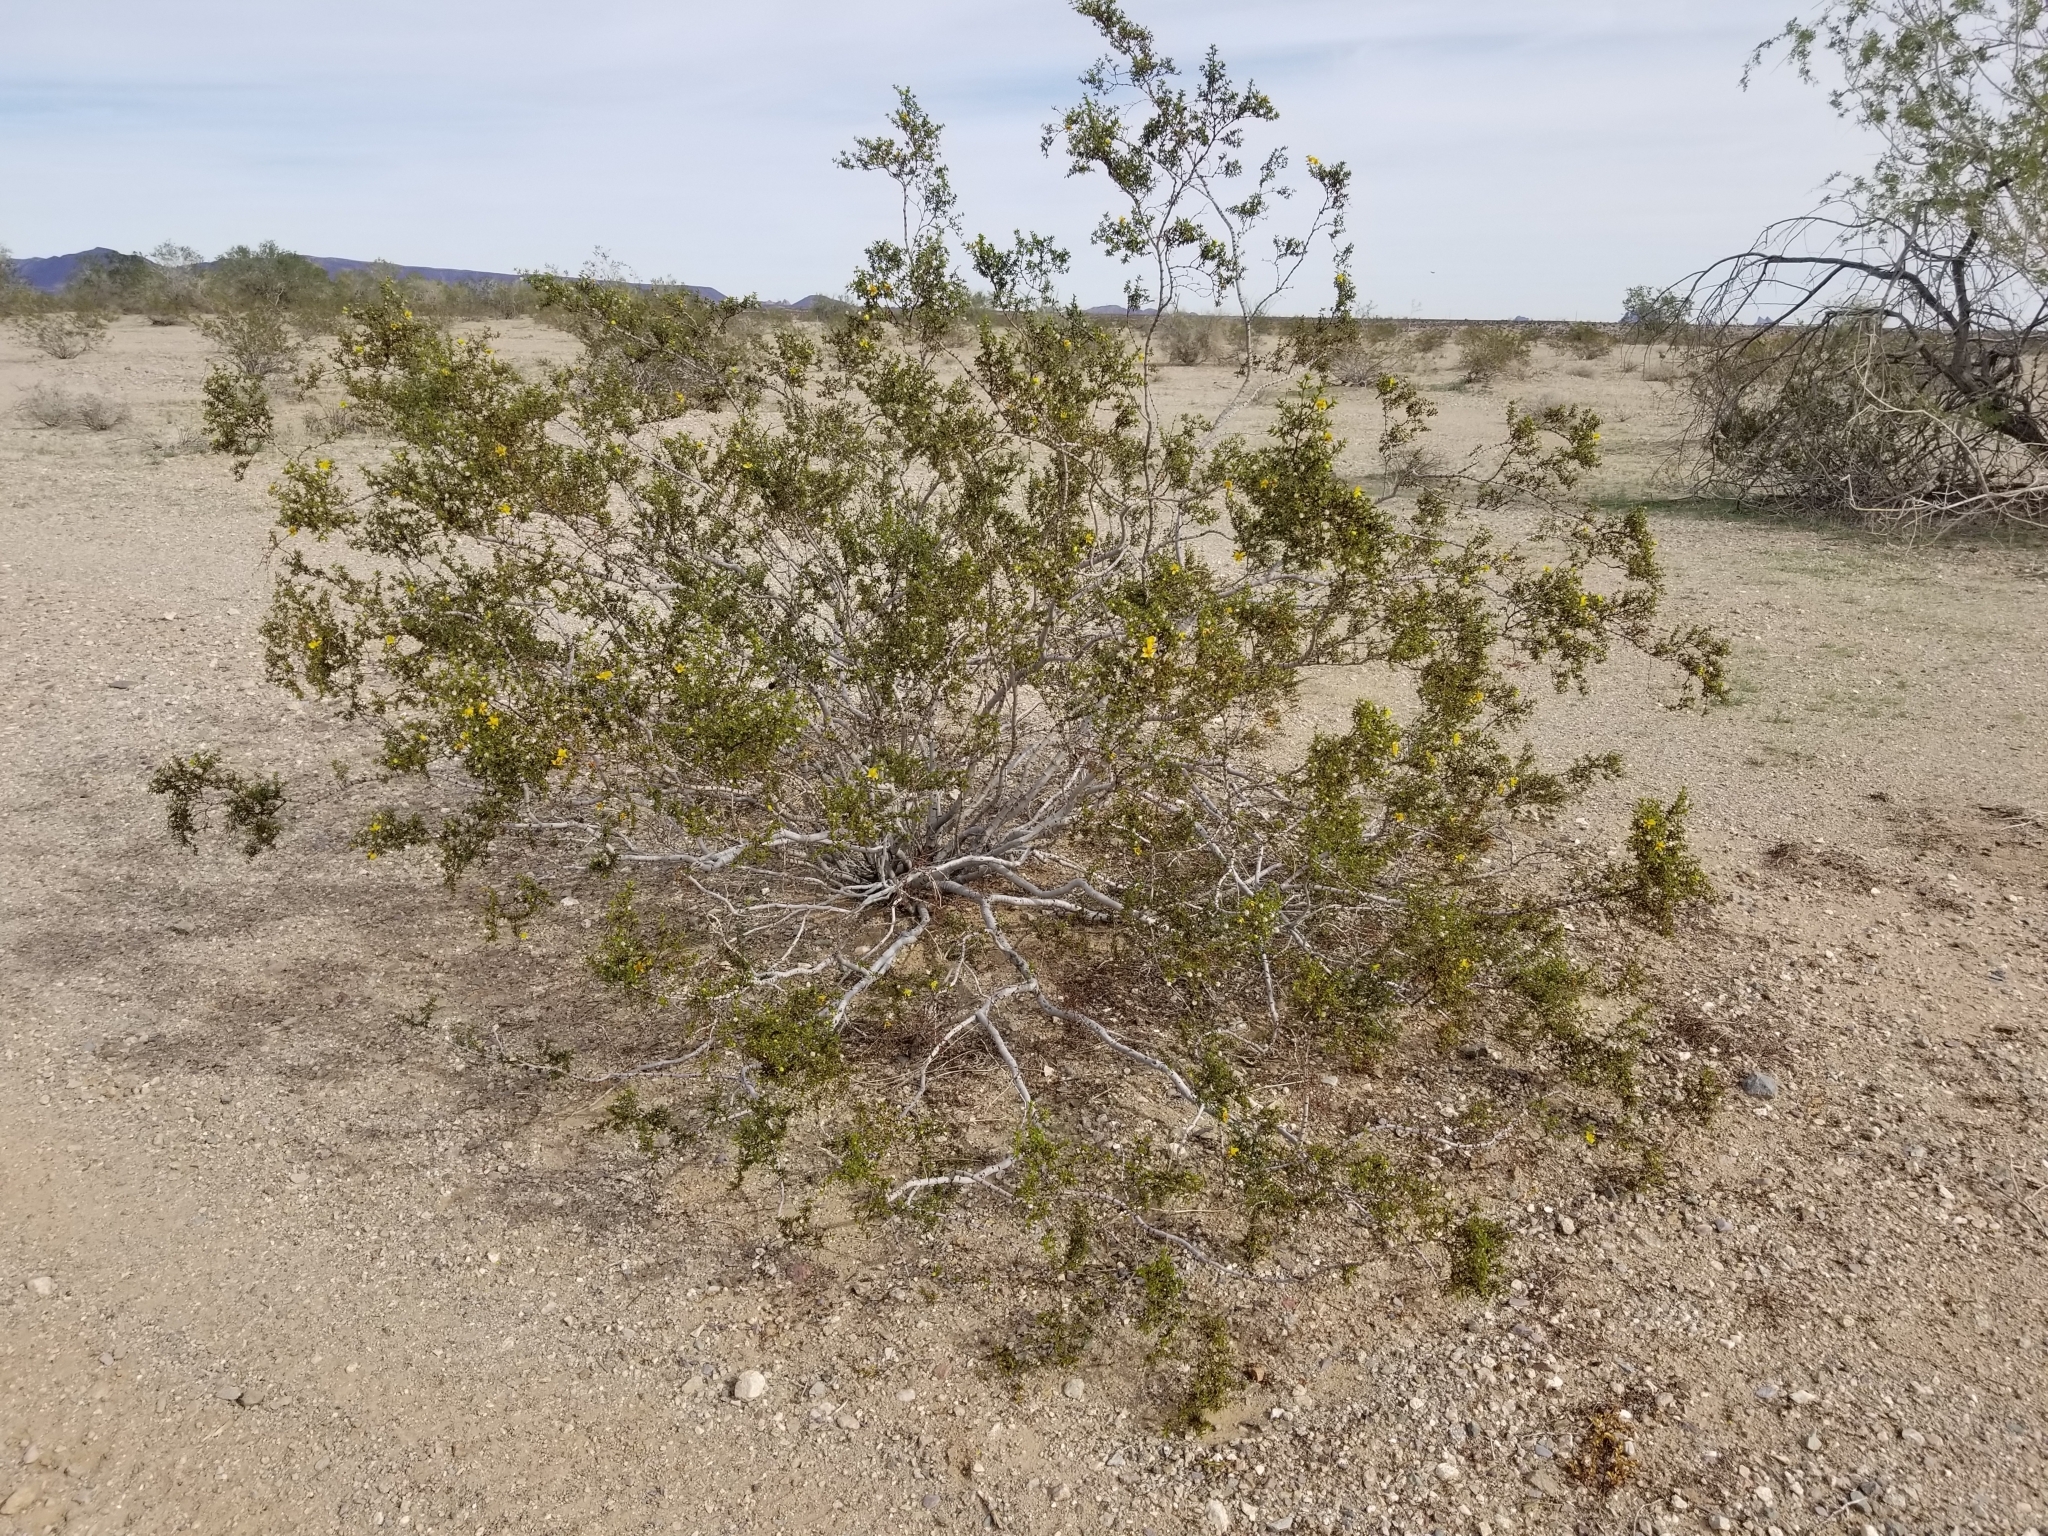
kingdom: Plantae
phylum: Tracheophyta
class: Magnoliopsida
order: Zygophyllales
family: Zygophyllaceae
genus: Larrea
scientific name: Larrea tridentata
